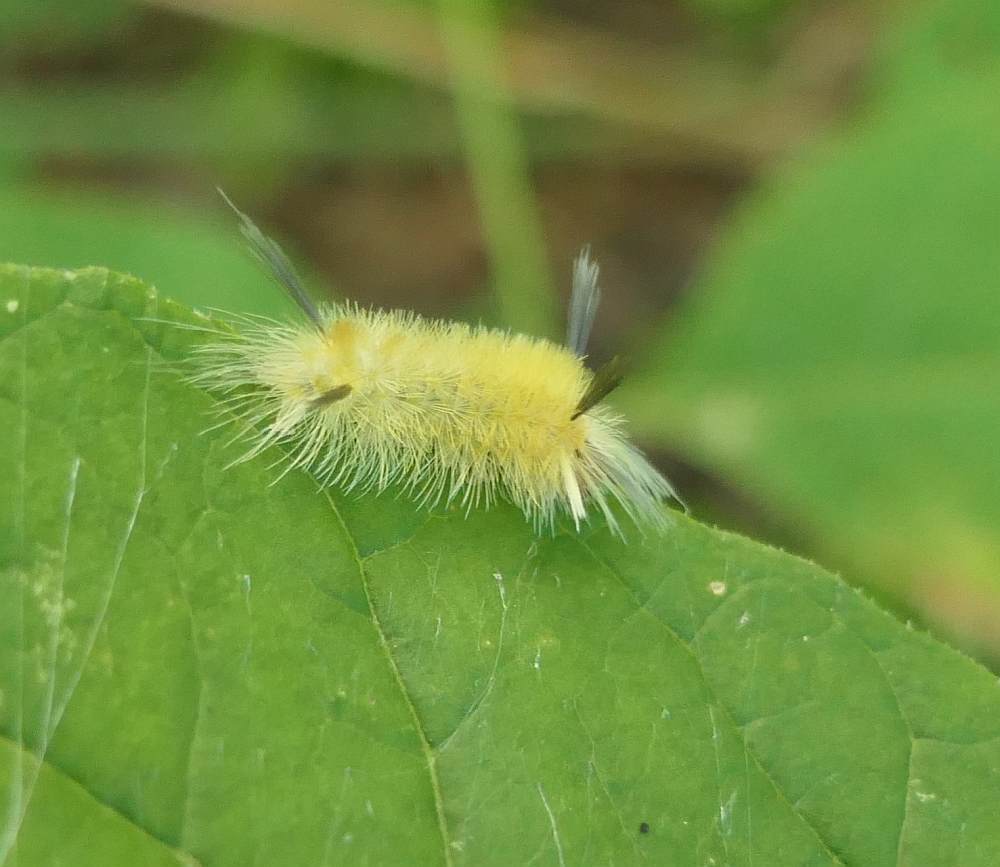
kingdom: Animalia
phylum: Arthropoda
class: Insecta
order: Lepidoptera
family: Erebidae
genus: Halysidota
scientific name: Halysidota tessellaris
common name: Banded tussock moth
